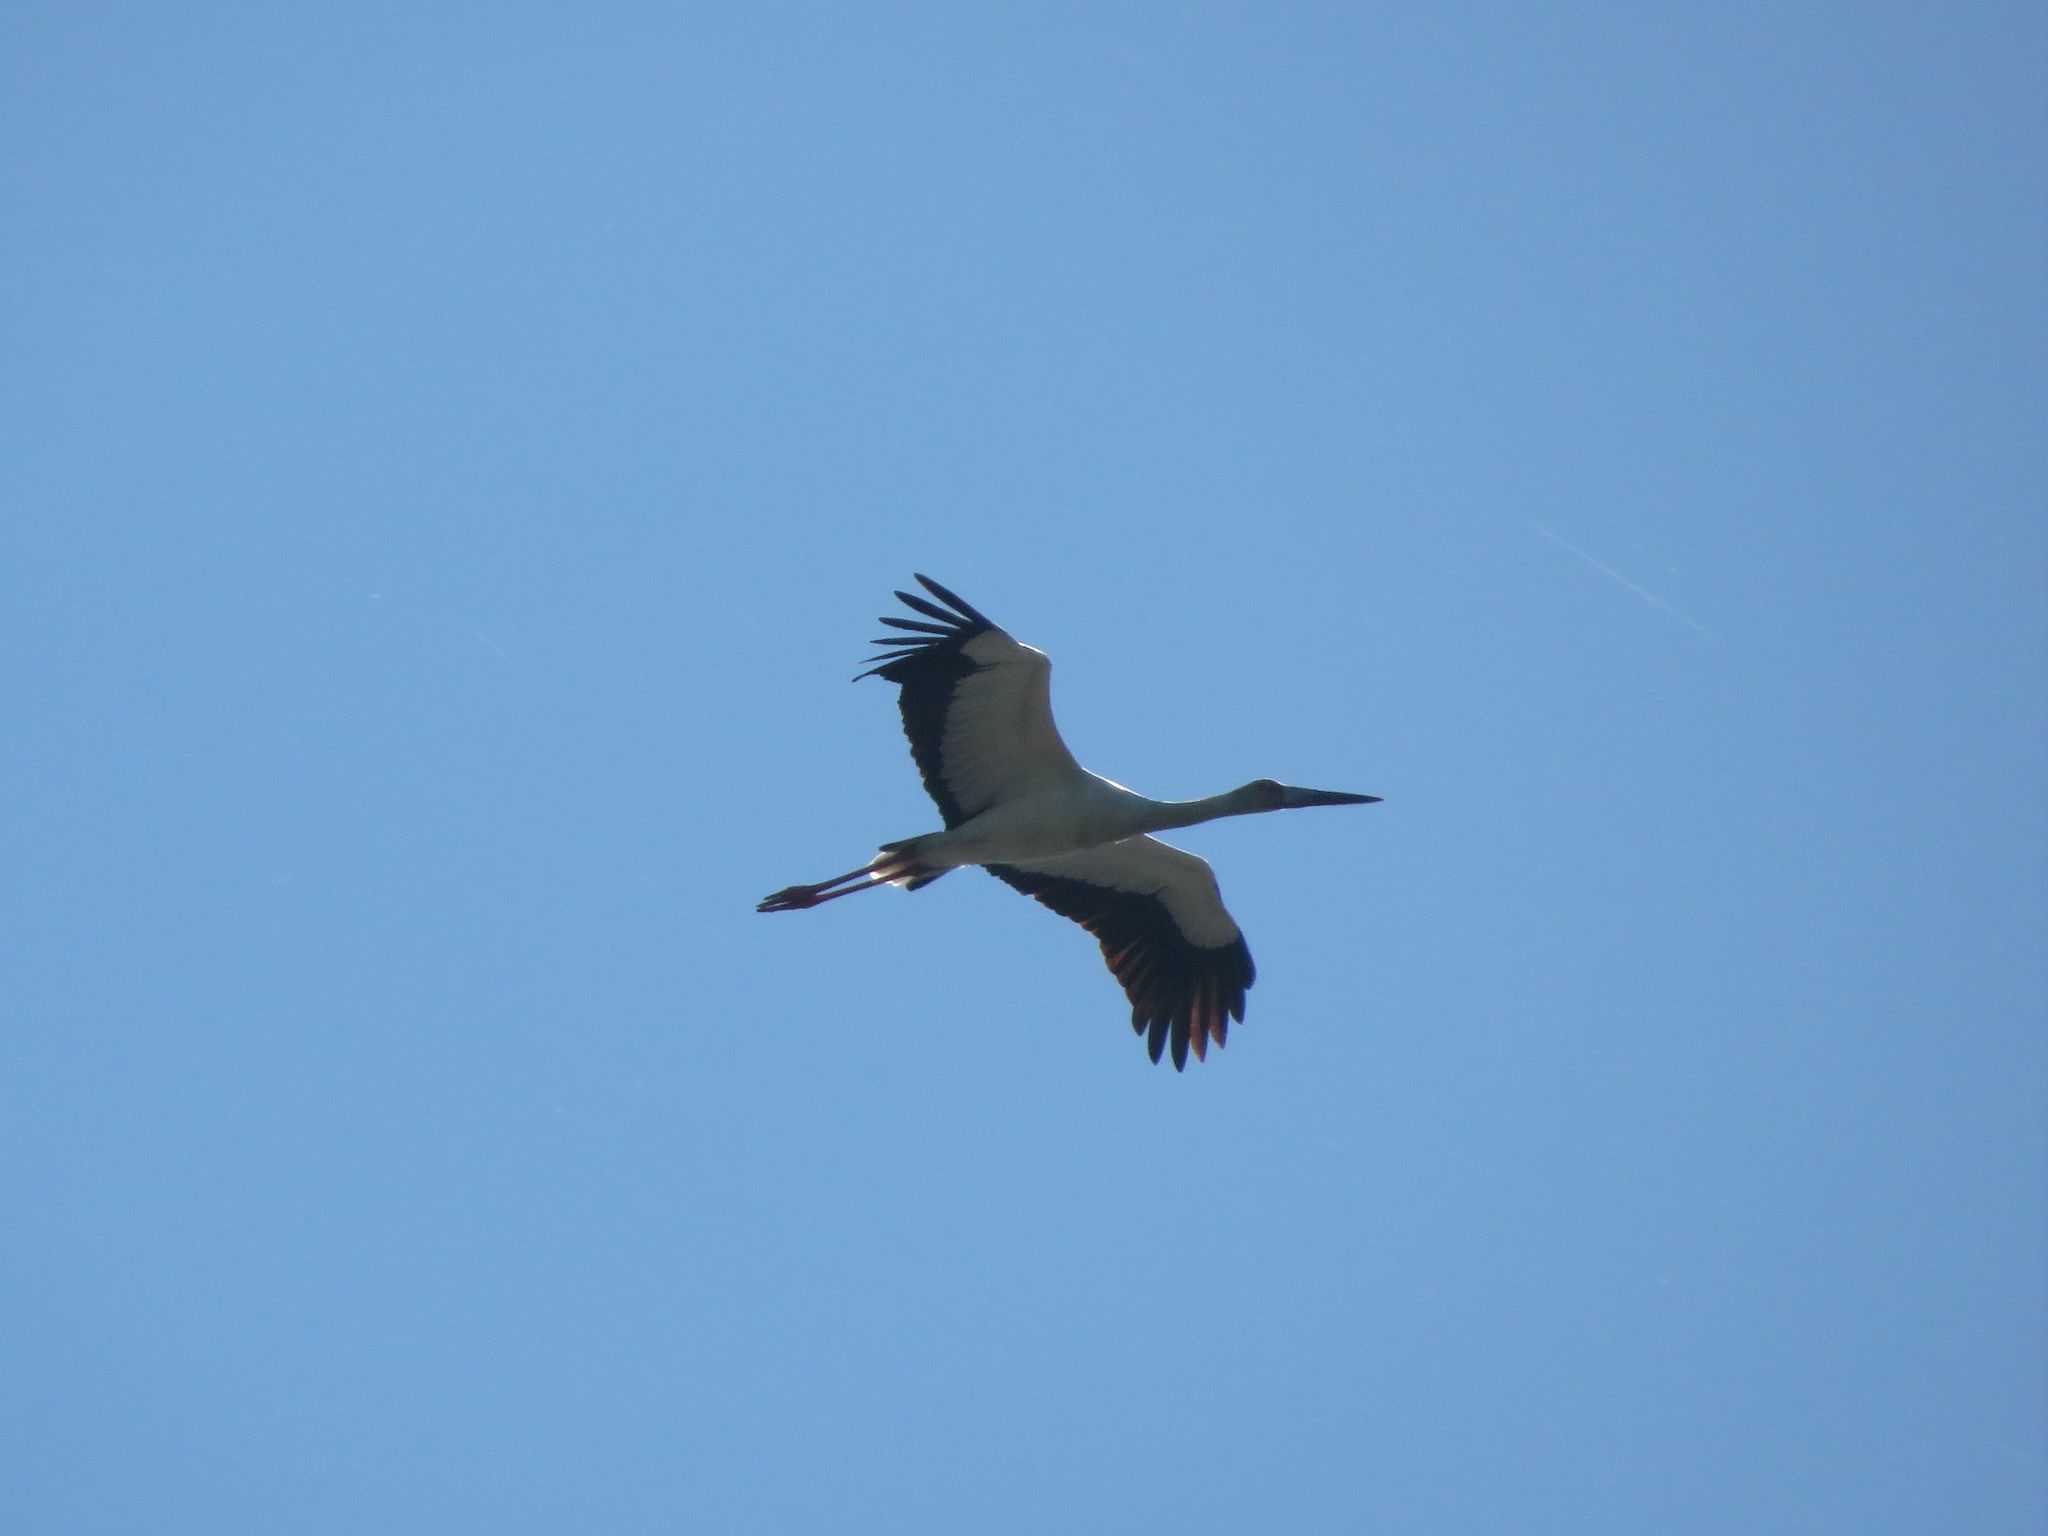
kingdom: Animalia
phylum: Chordata
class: Aves
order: Ciconiiformes
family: Ciconiidae
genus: Ciconia
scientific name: Ciconia maguari
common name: Maguari stork
